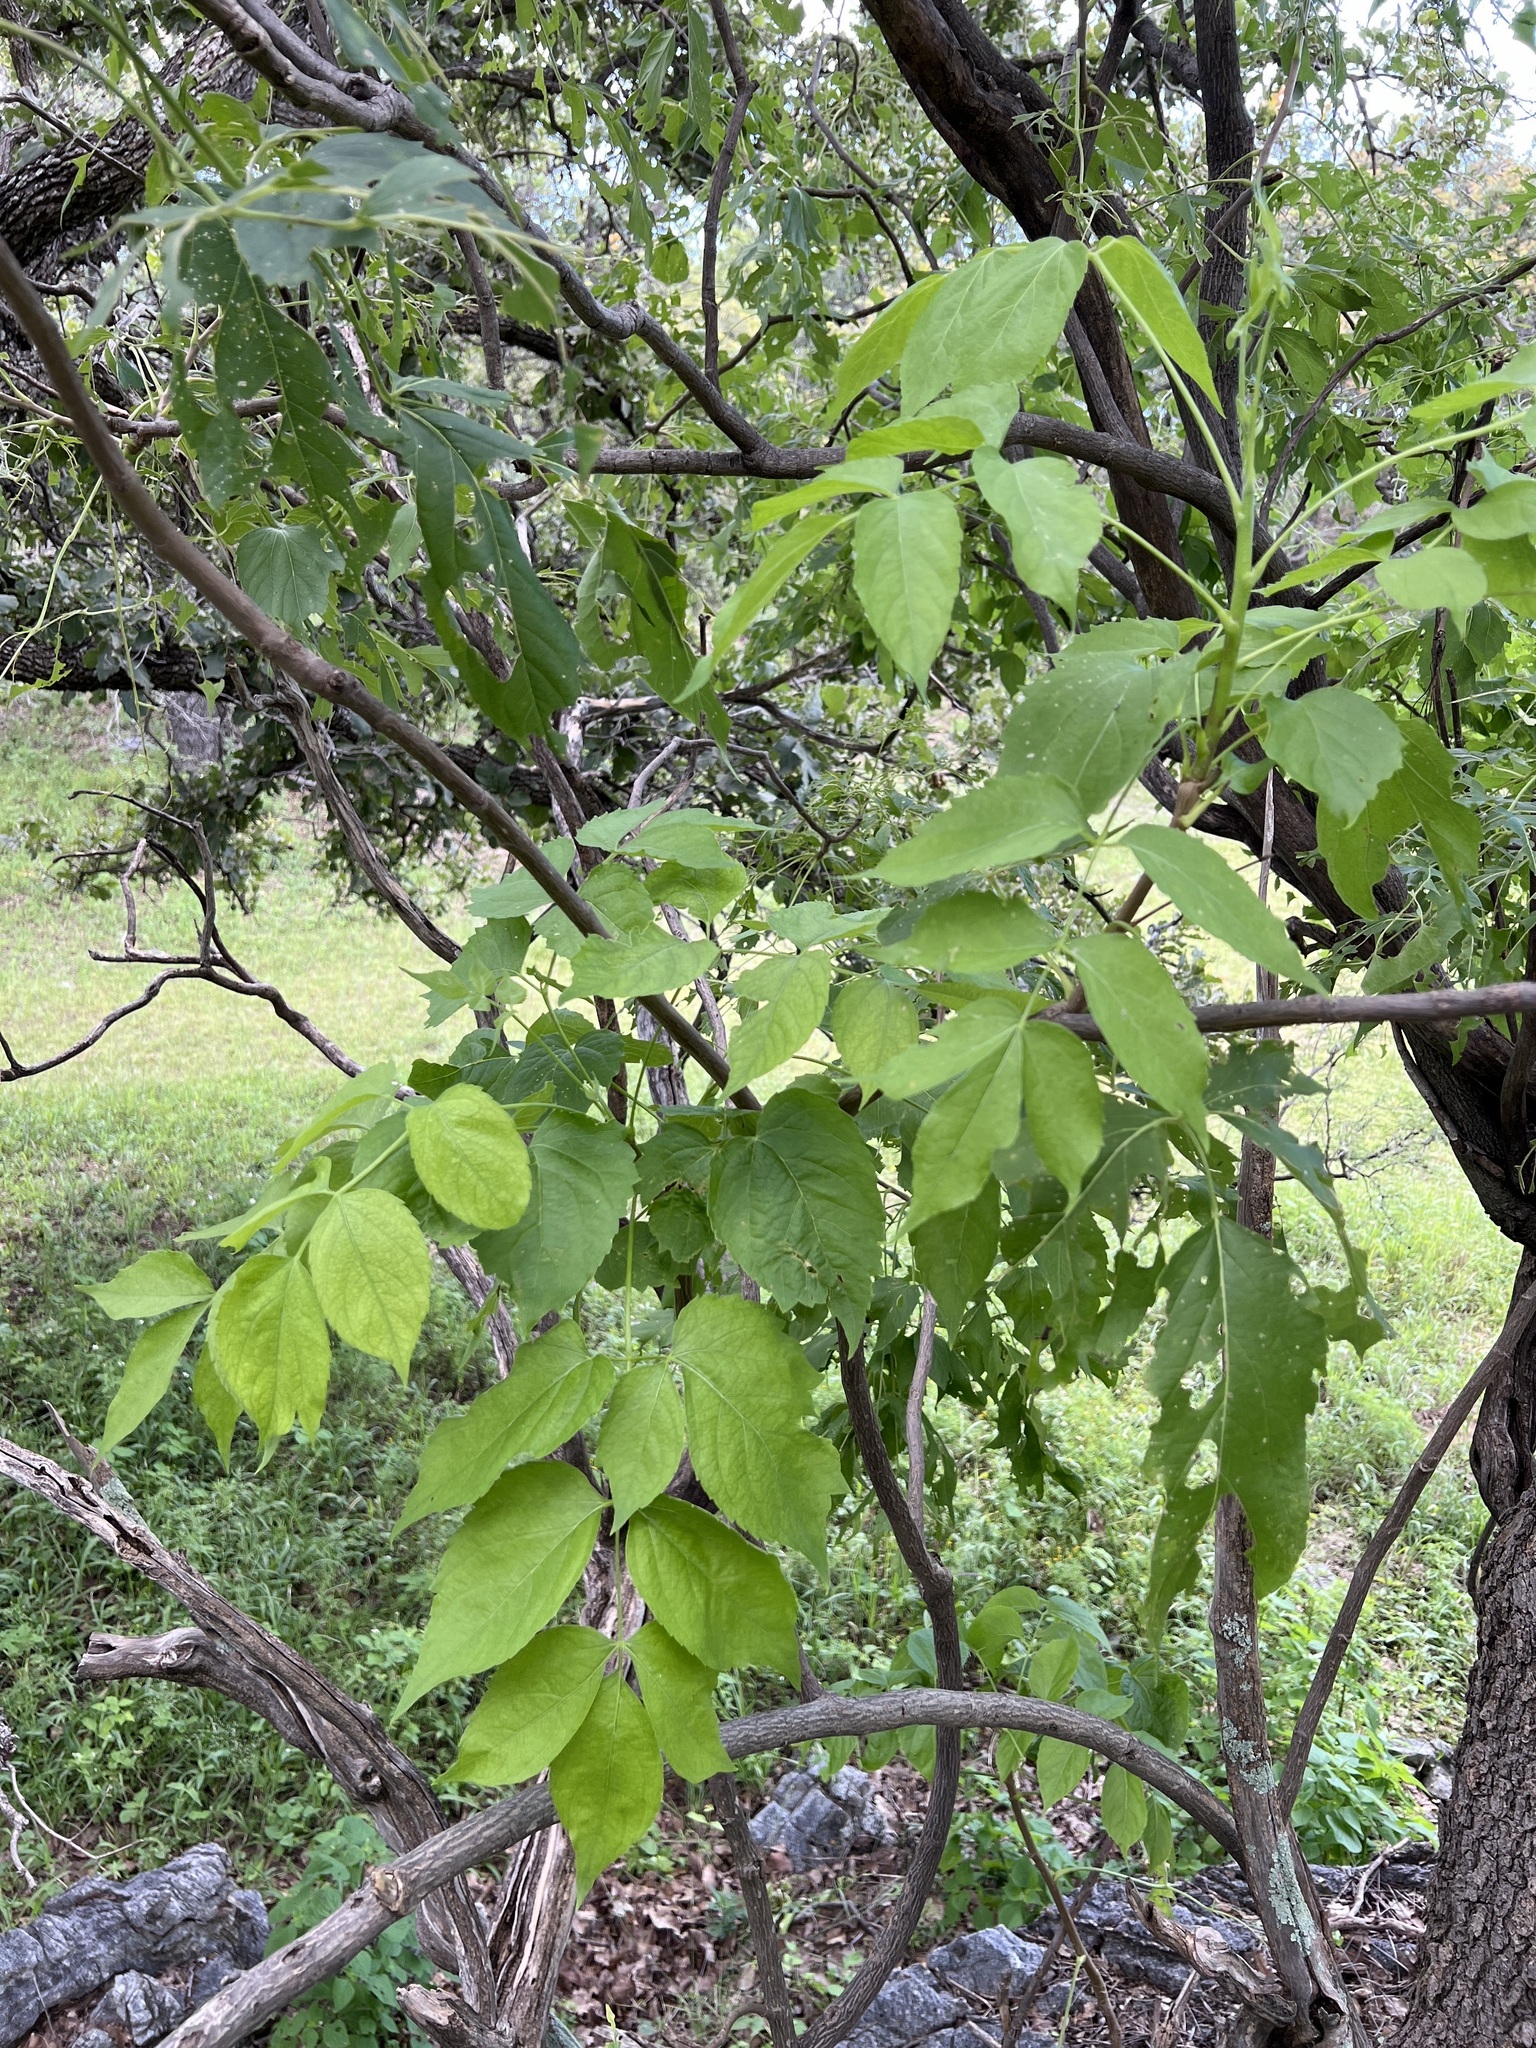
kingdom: Plantae
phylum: Tracheophyta
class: Magnoliopsida
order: Apiales
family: Araliaceae
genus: Aralia
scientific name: Aralia humilis
